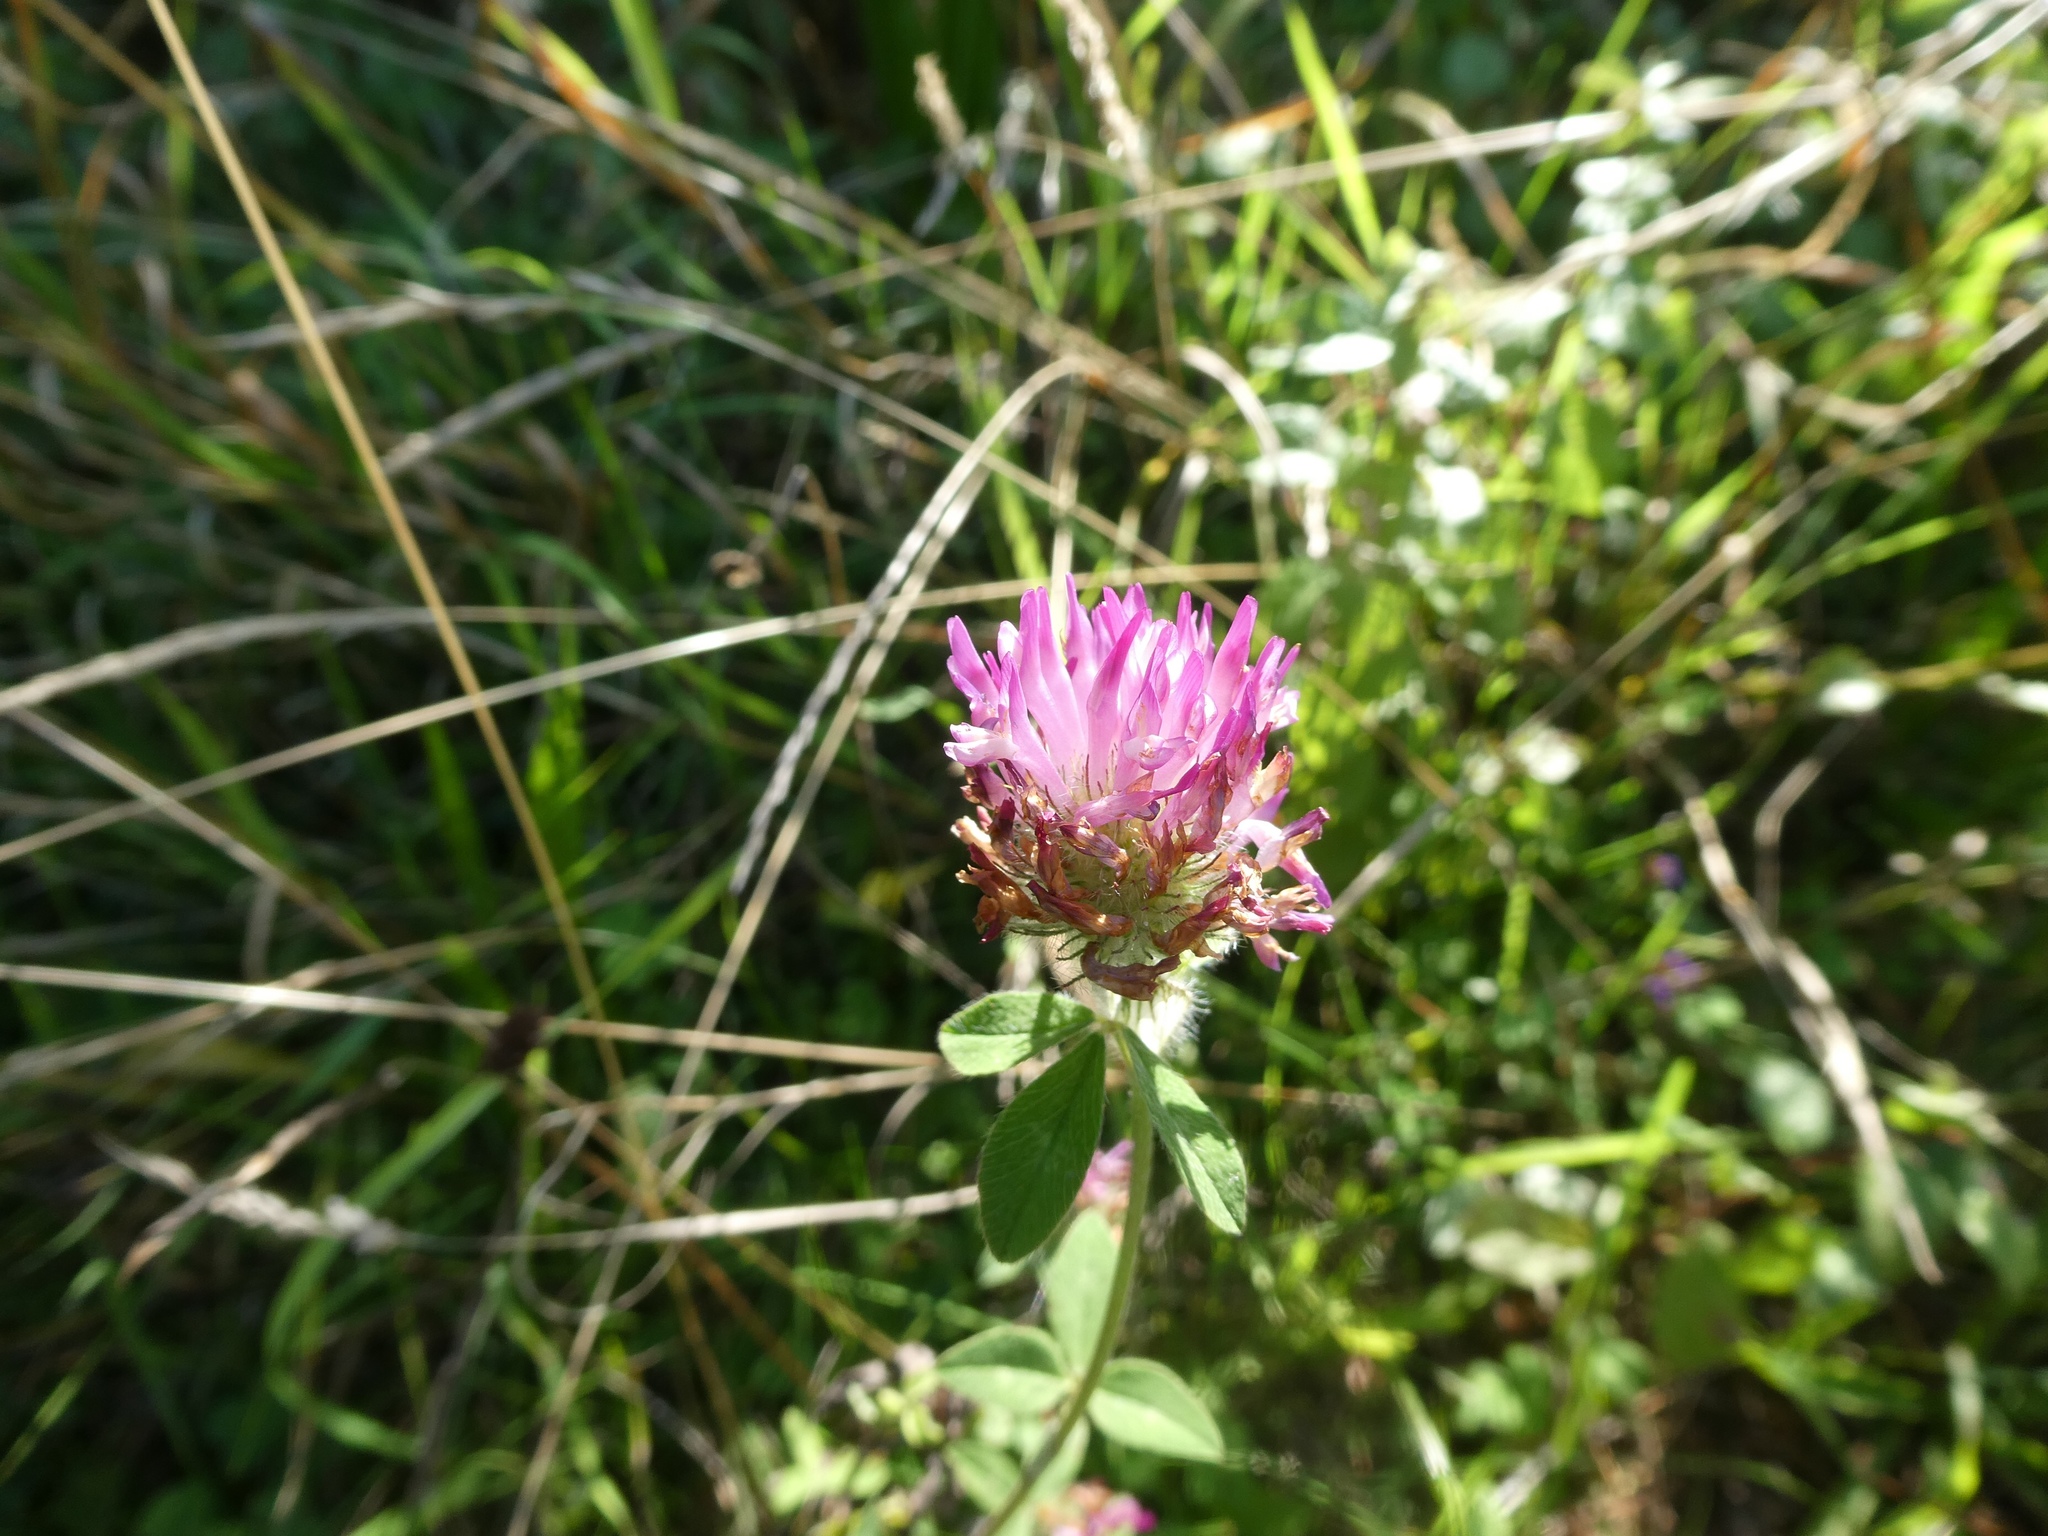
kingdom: Plantae
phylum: Tracheophyta
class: Magnoliopsida
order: Fabales
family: Fabaceae
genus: Trifolium
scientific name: Trifolium pratense
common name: Red clover
